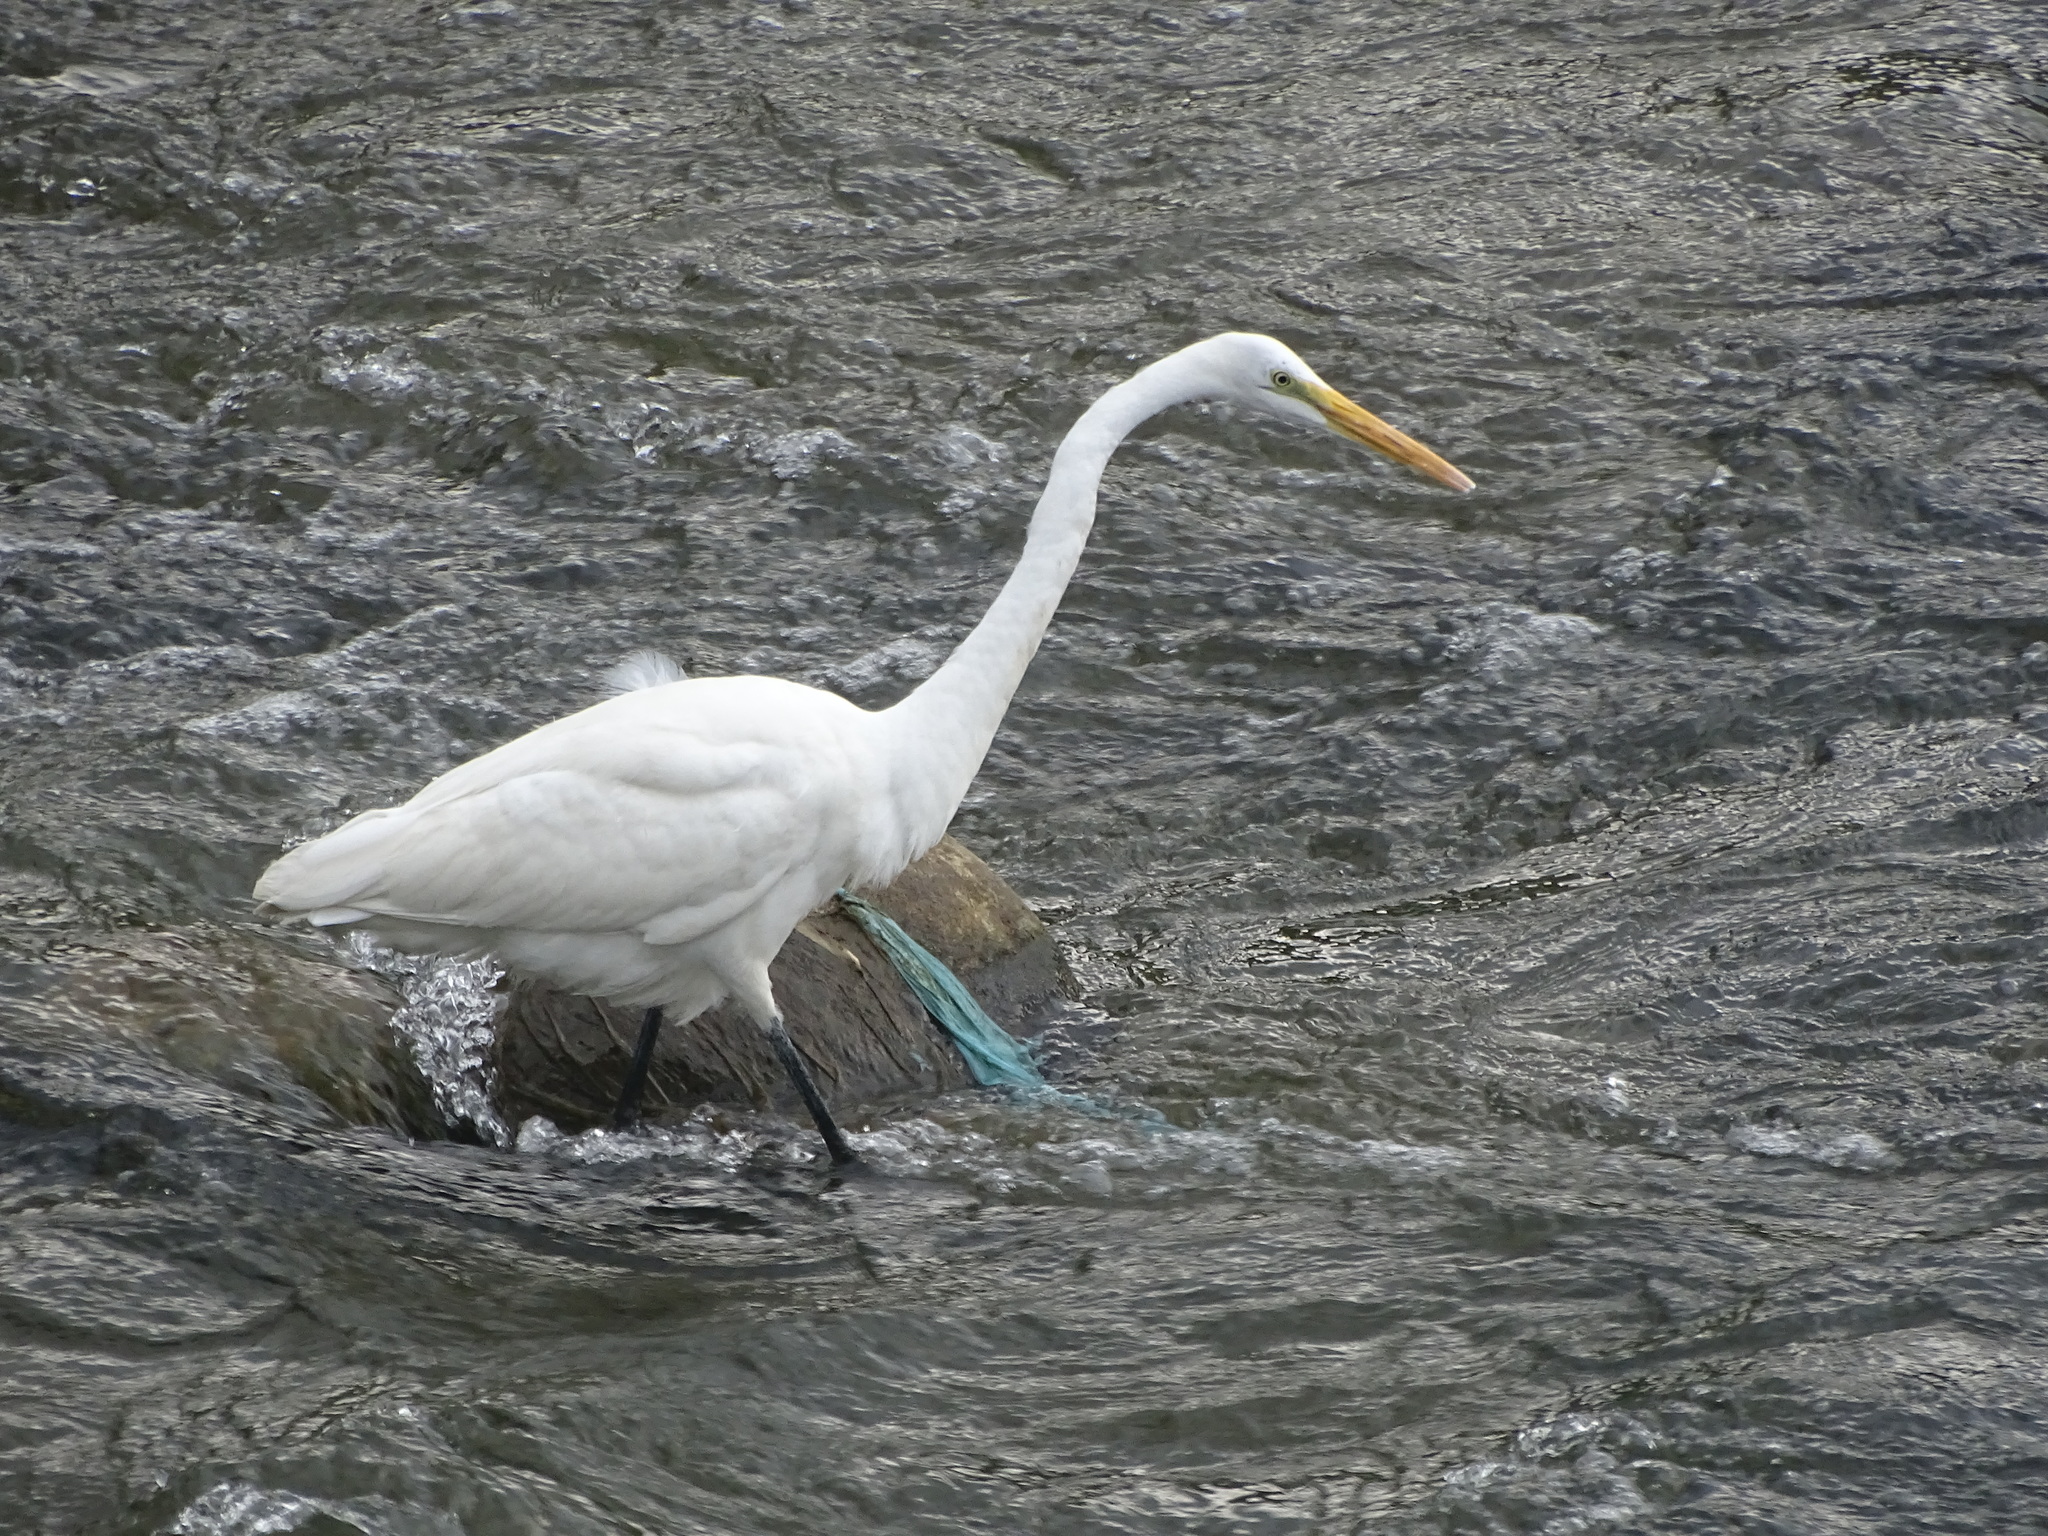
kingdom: Animalia
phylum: Chordata
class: Aves
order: Pelecaniformes
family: Ardeidae
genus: Ardea
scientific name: Ardea alba
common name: Great egret
